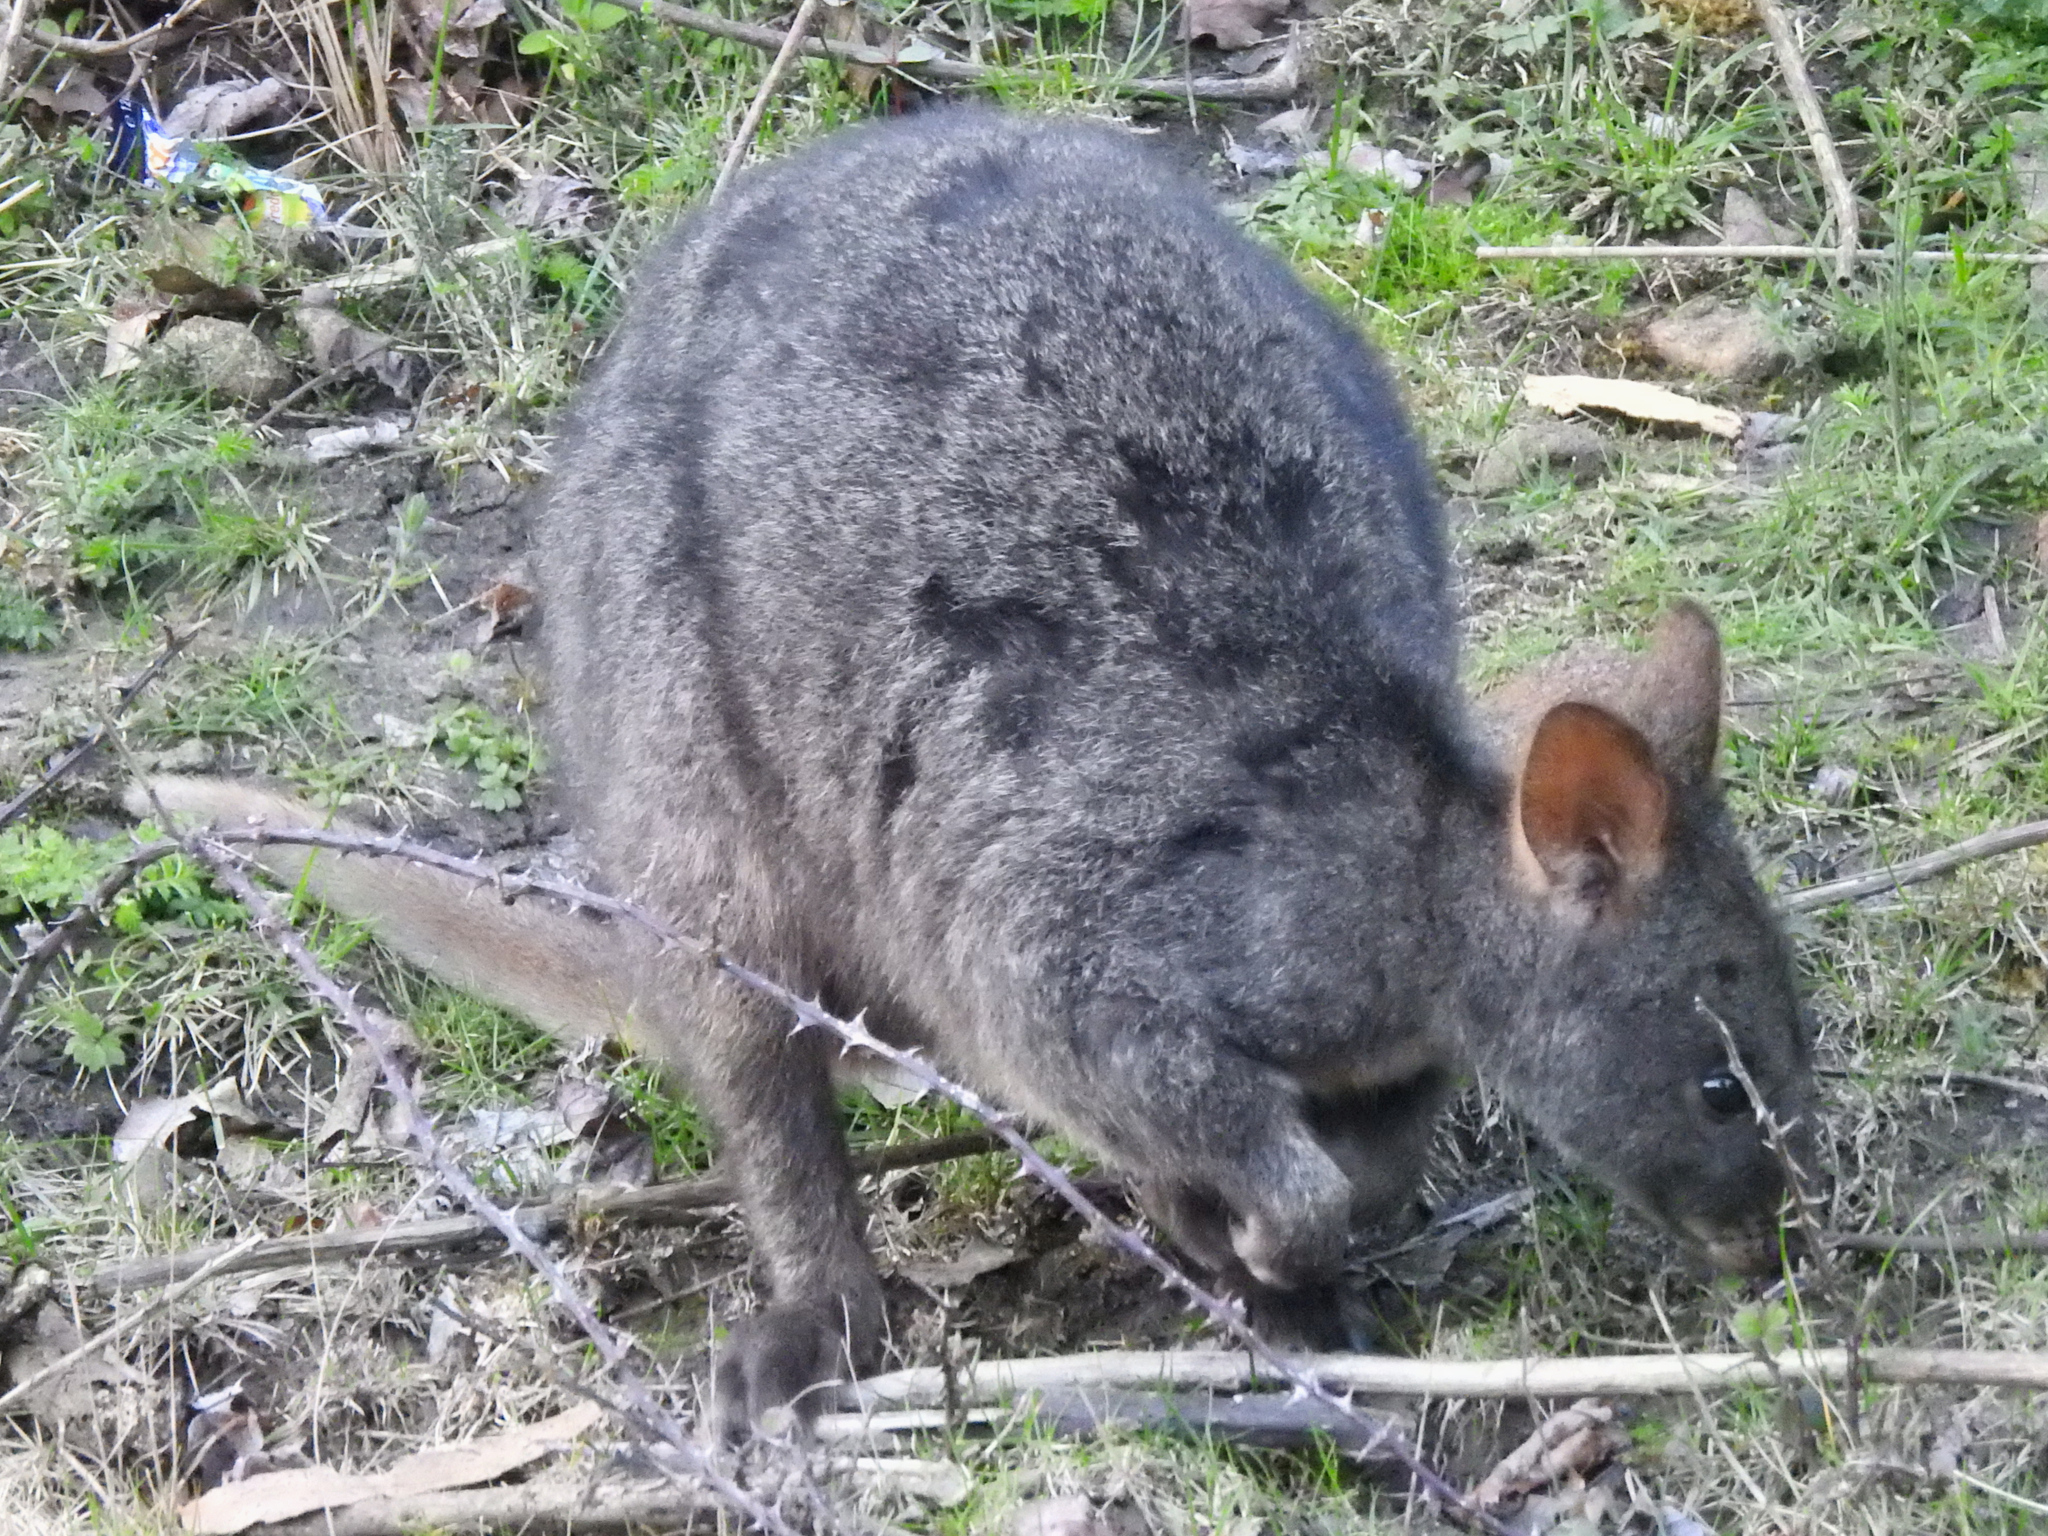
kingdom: Animalia
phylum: Chordata
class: Mammalia
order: Diprotodontia
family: Macropodidae
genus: Thylogale
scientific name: Thylogale billardierii
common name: Tasmanian pademelon
